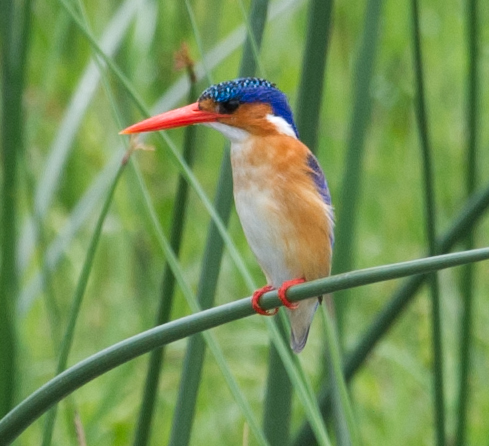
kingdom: Animalia
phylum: Chordata
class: Aves
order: Coraciiformes
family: Alcedinidae
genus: Corythornis
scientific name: Corythornis cristatus
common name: Malachite kingfisher
